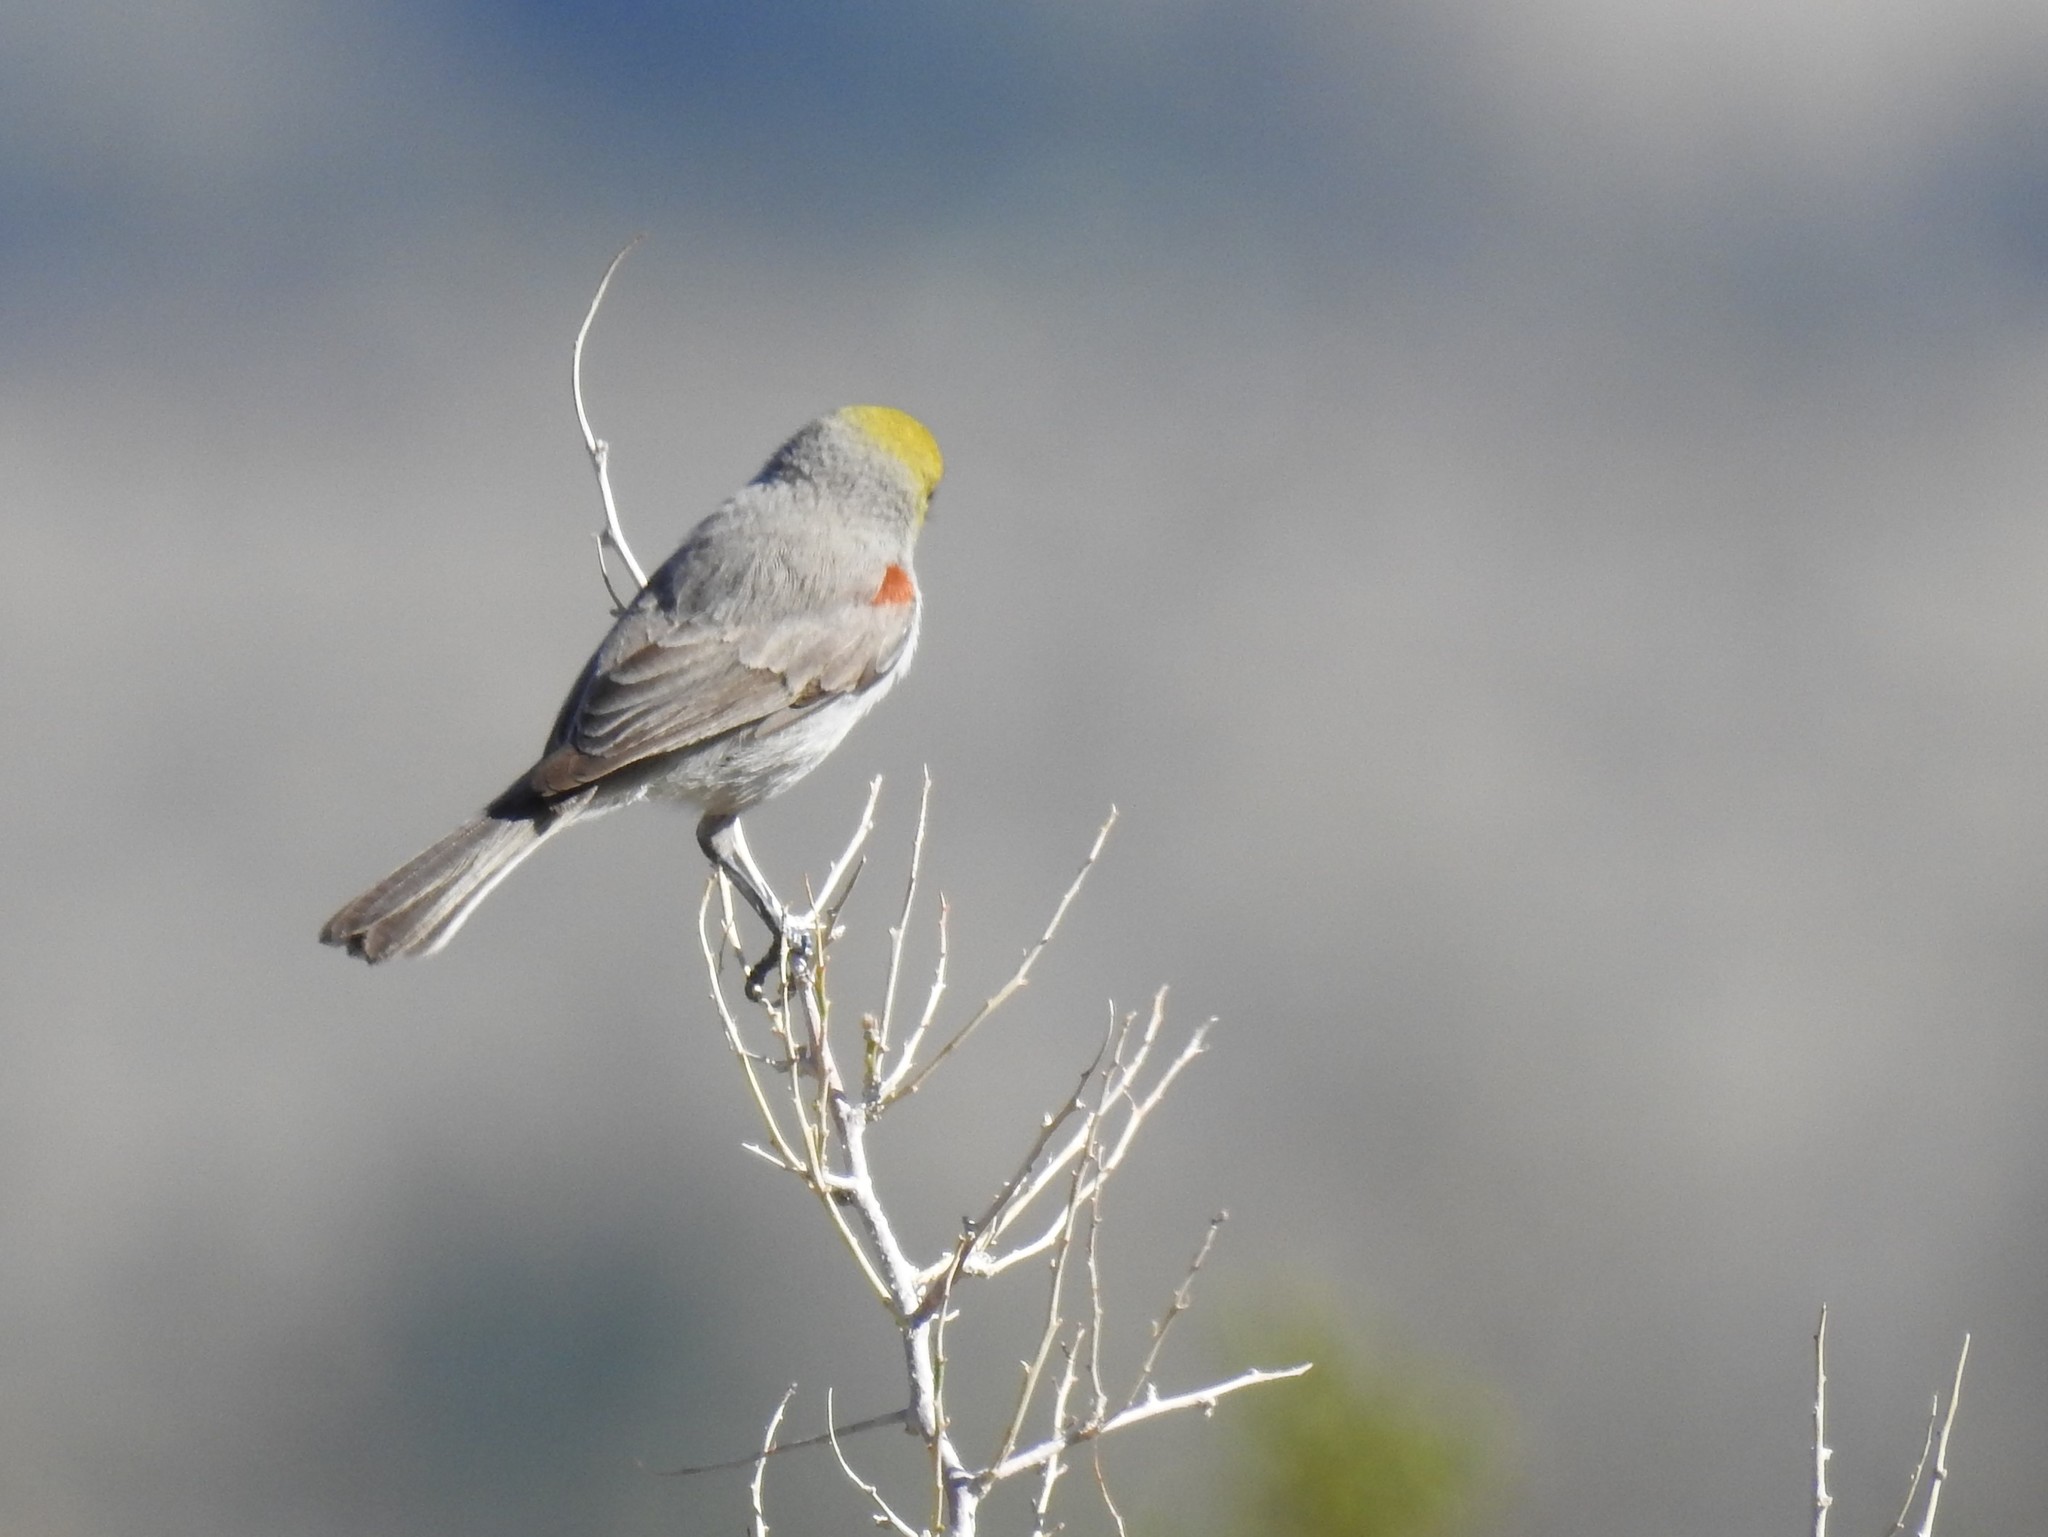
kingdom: Animalia
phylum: Chordata
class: Aves
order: Passeriformes
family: Remizidae
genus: Auriparus
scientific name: Auriparus flaviceps
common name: Verdin
